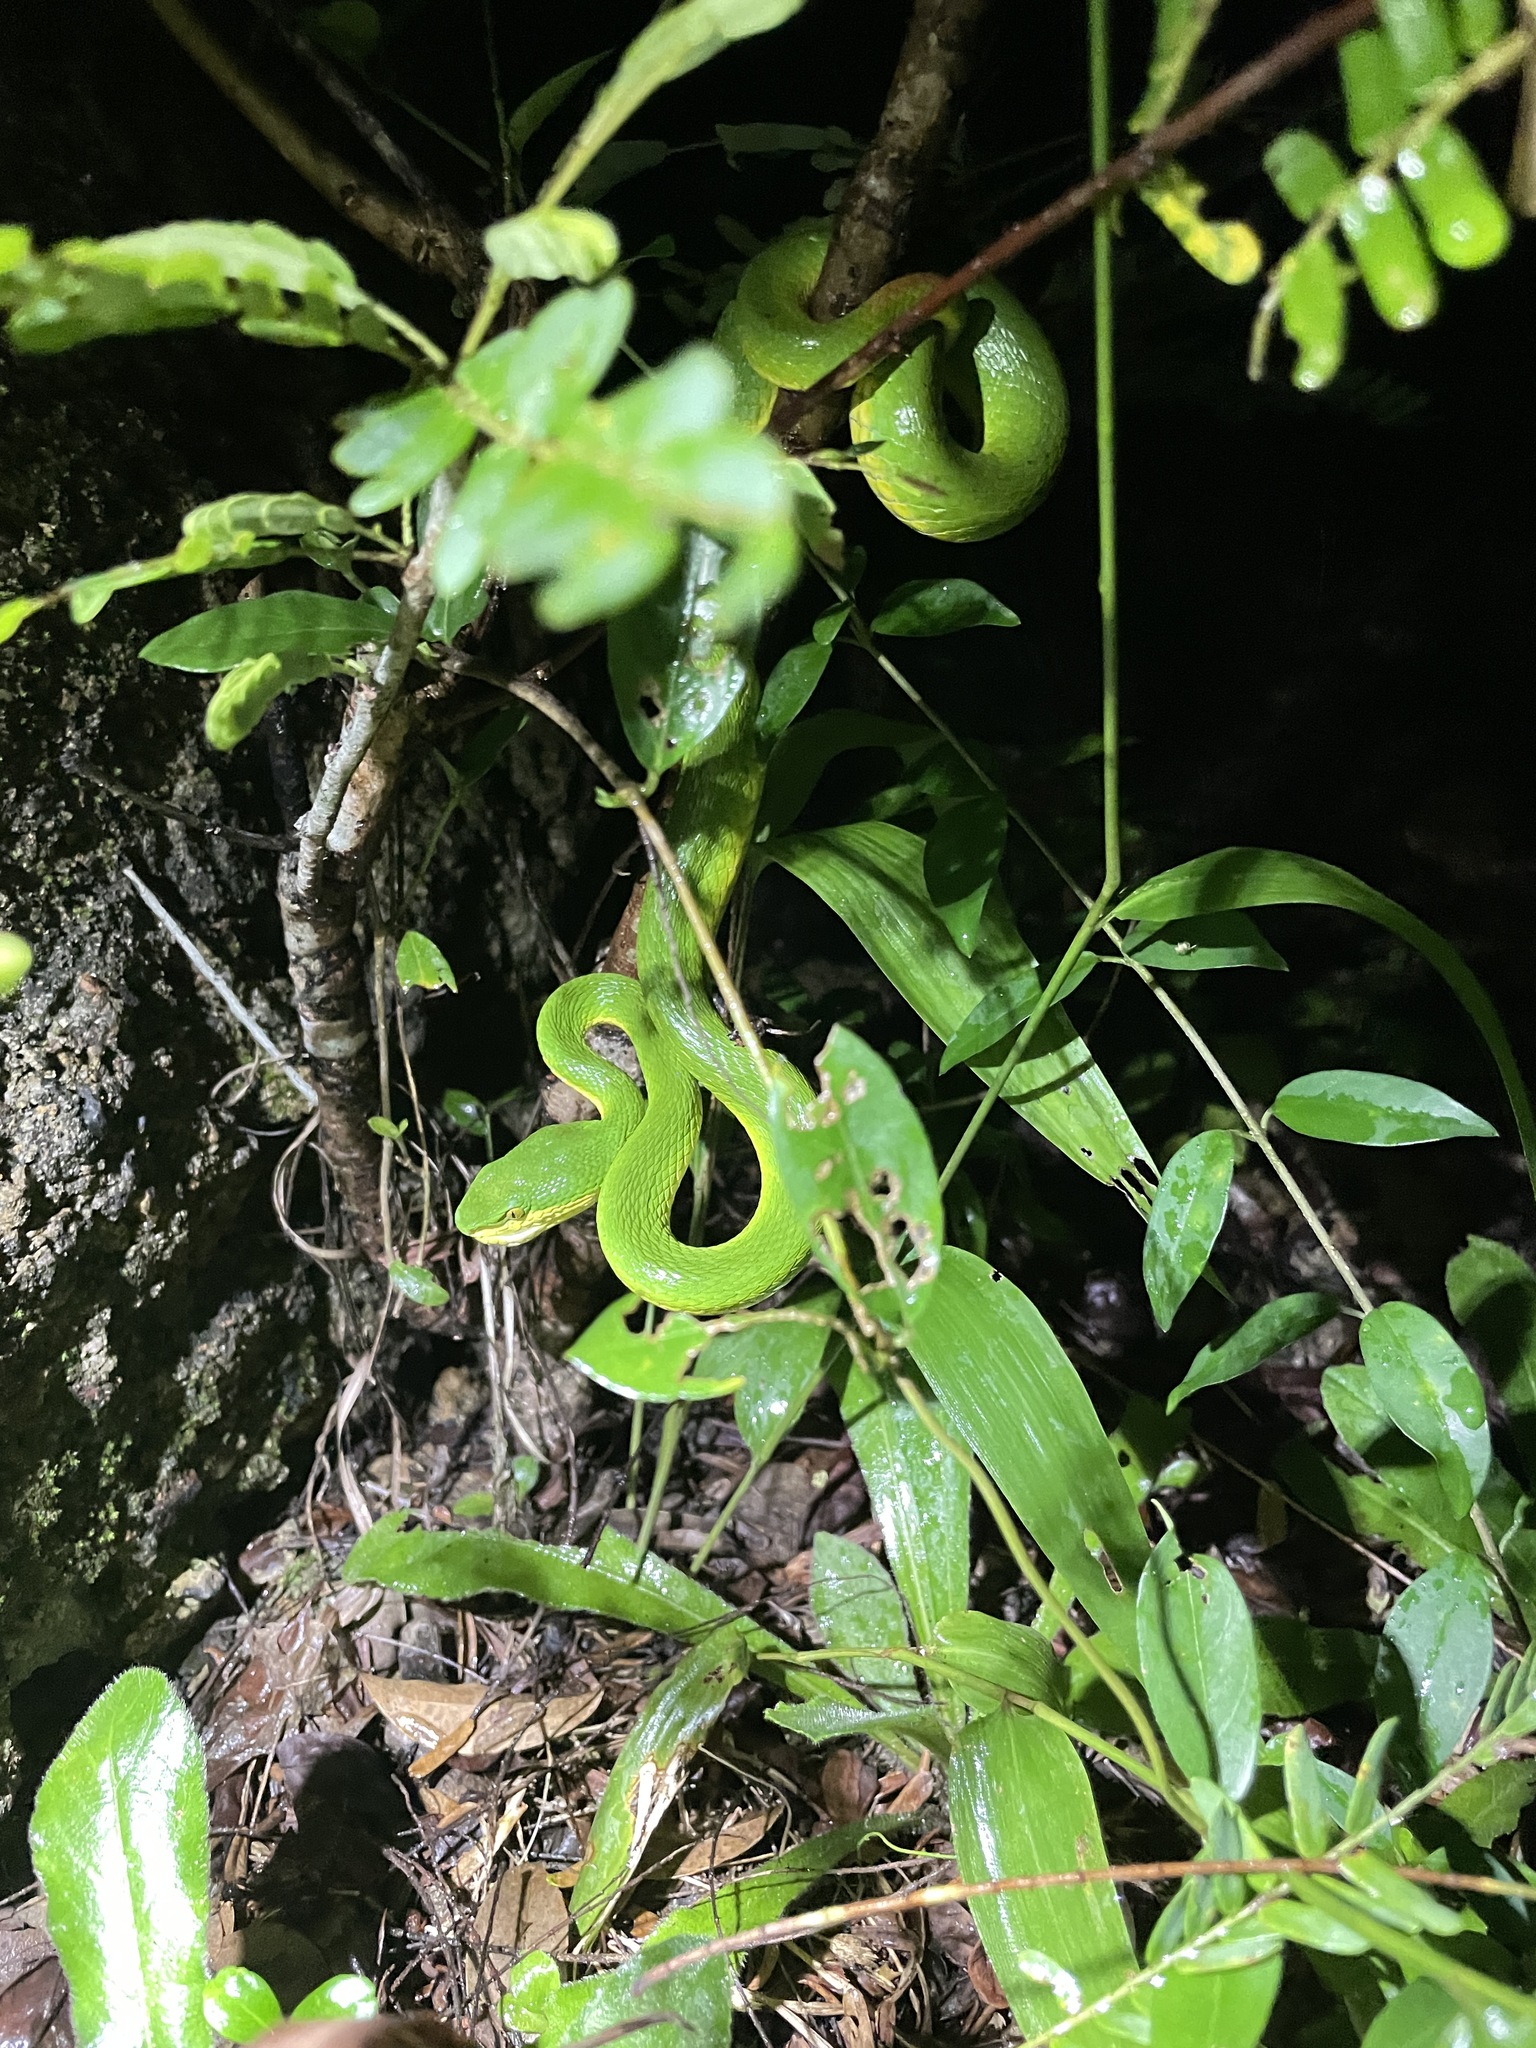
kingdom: Animalia
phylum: Chordata
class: Squamata
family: Viperidae
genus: Trimeresurus
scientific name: Trimeresurus albolabris
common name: White-lipped pitviper
